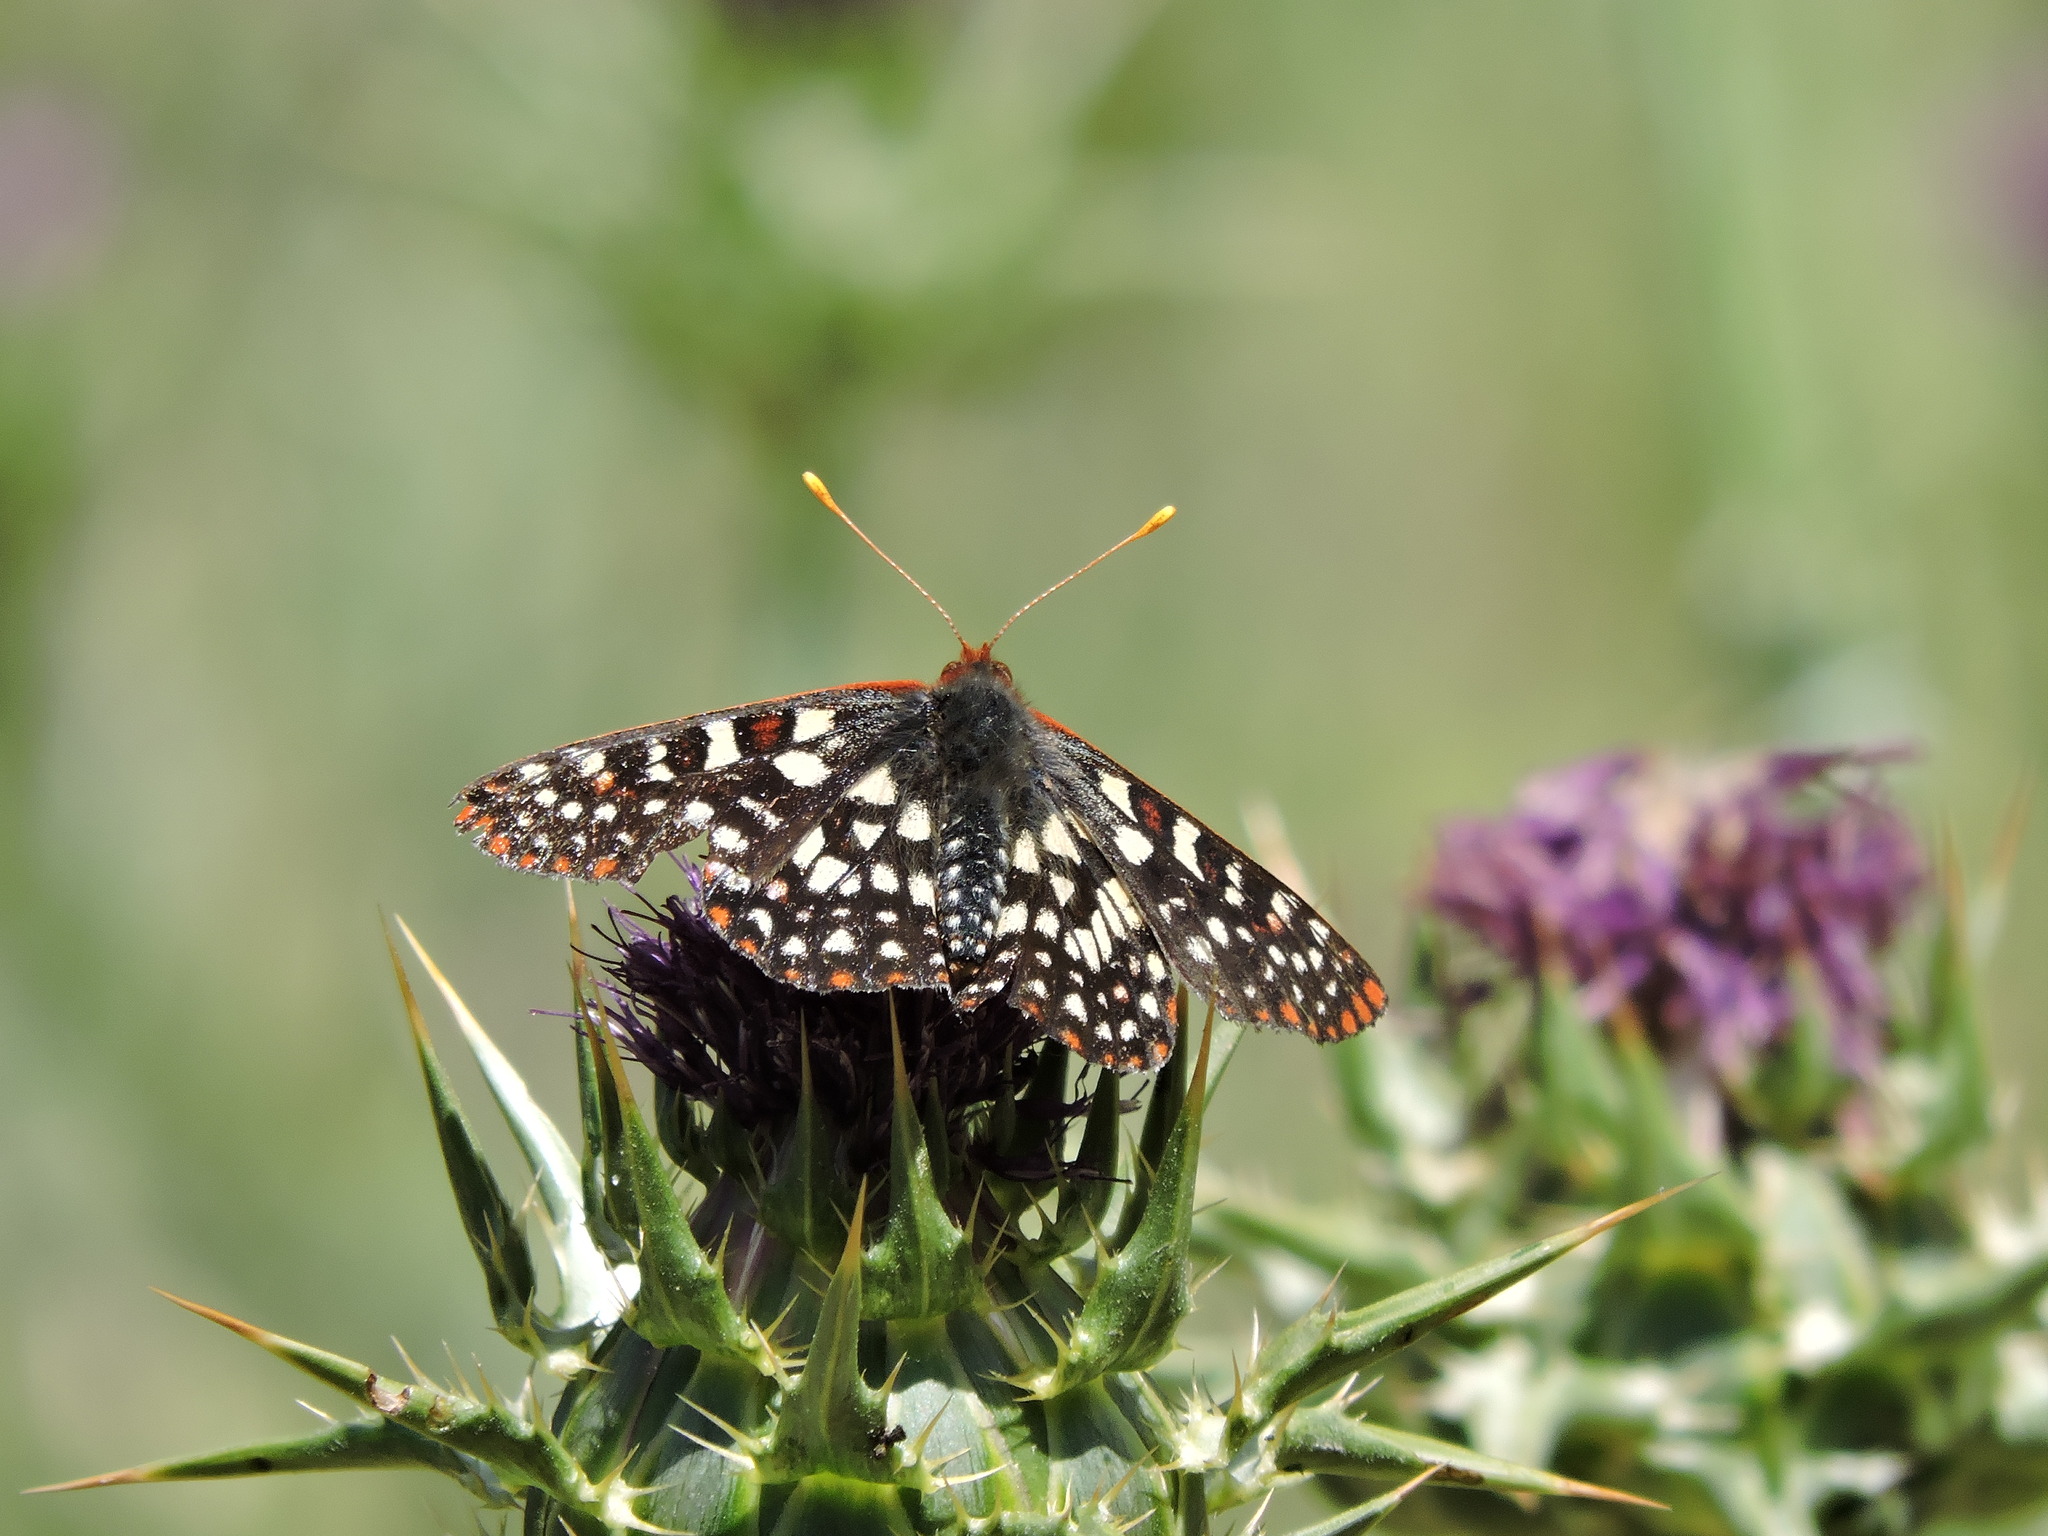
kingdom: Animalia
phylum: Arthropoda
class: Insecta
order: Lepidoptera
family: Nymphalidae
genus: Occidryas
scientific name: Occidryas chalcedona
